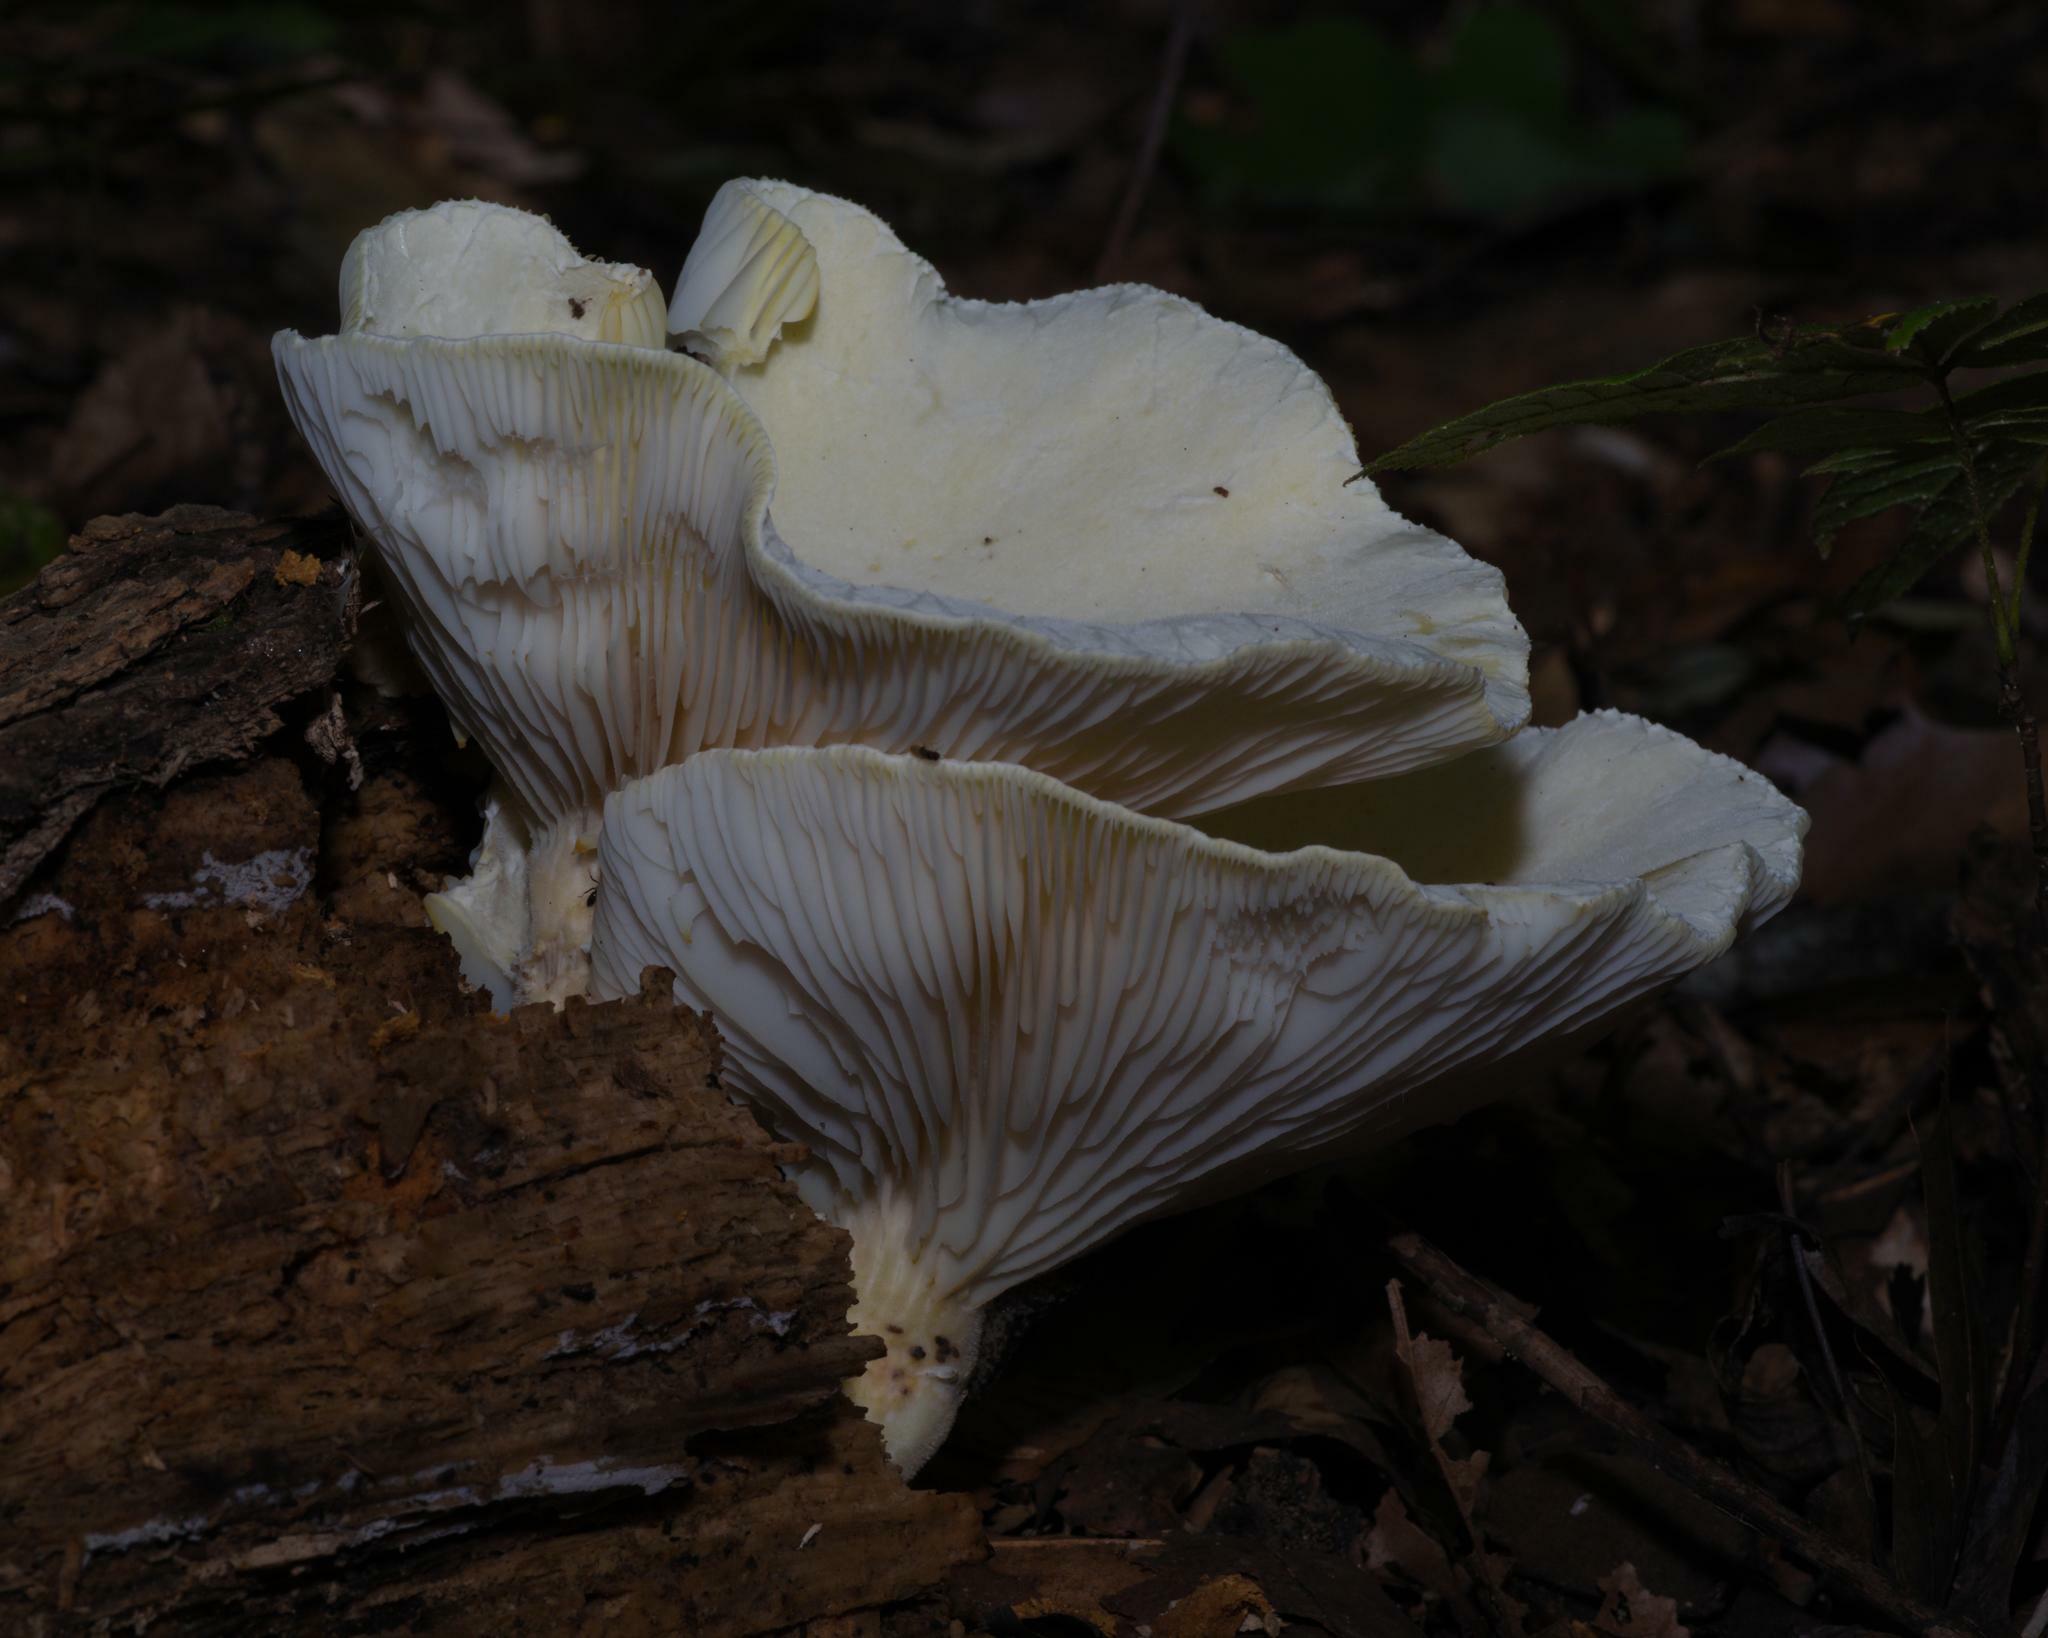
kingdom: Fungi
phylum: Basidiomycota
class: Agaricomycetes
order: Polyporales
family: Polyporaceae
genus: Lentinus
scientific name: Lentinus levis
